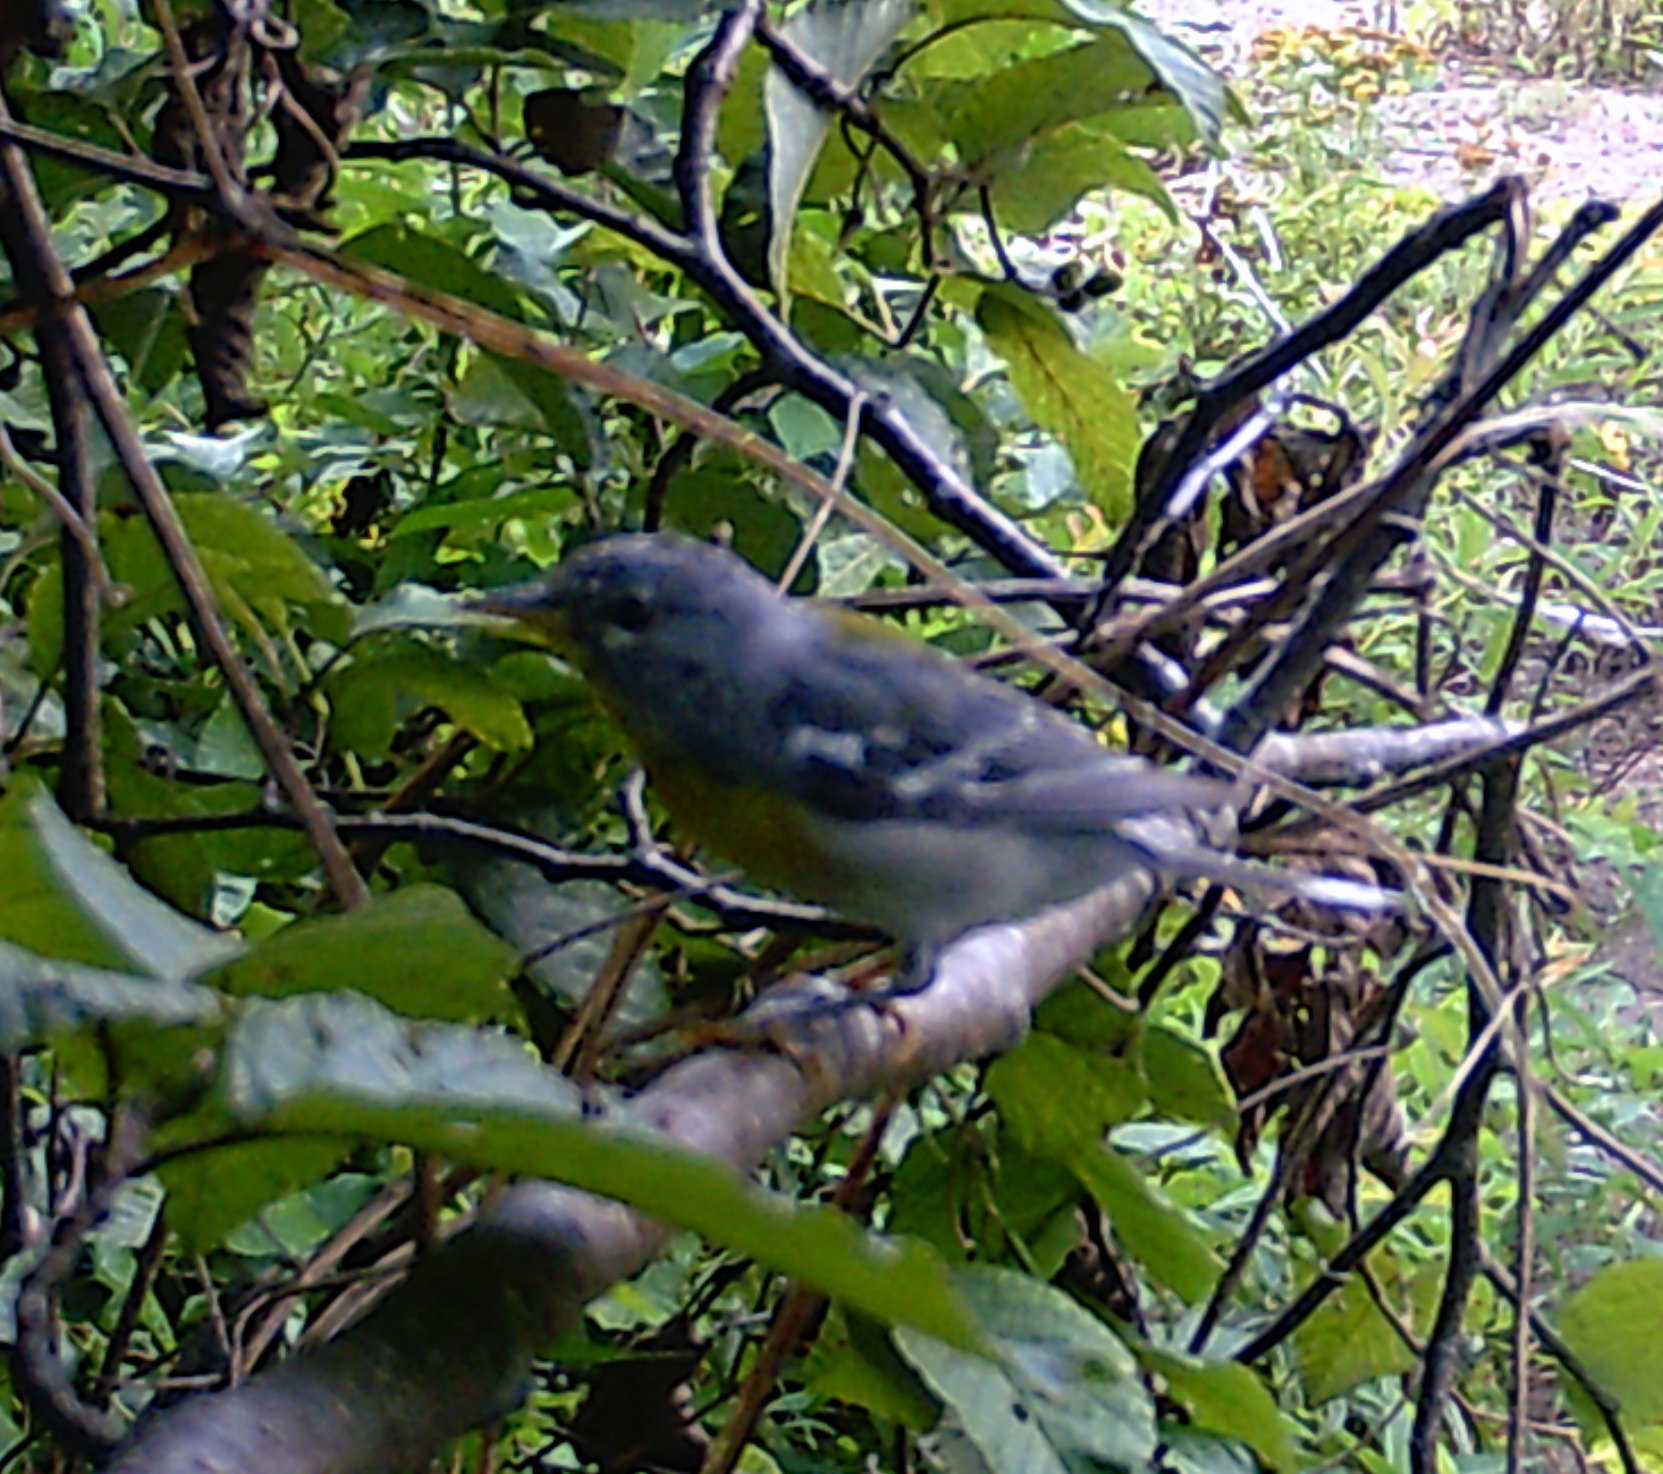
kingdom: Animalia
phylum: Chordata
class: Aves
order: Passeriformes
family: Parulidae
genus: Setophaga
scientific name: Setophaga americana
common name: Northern parula
